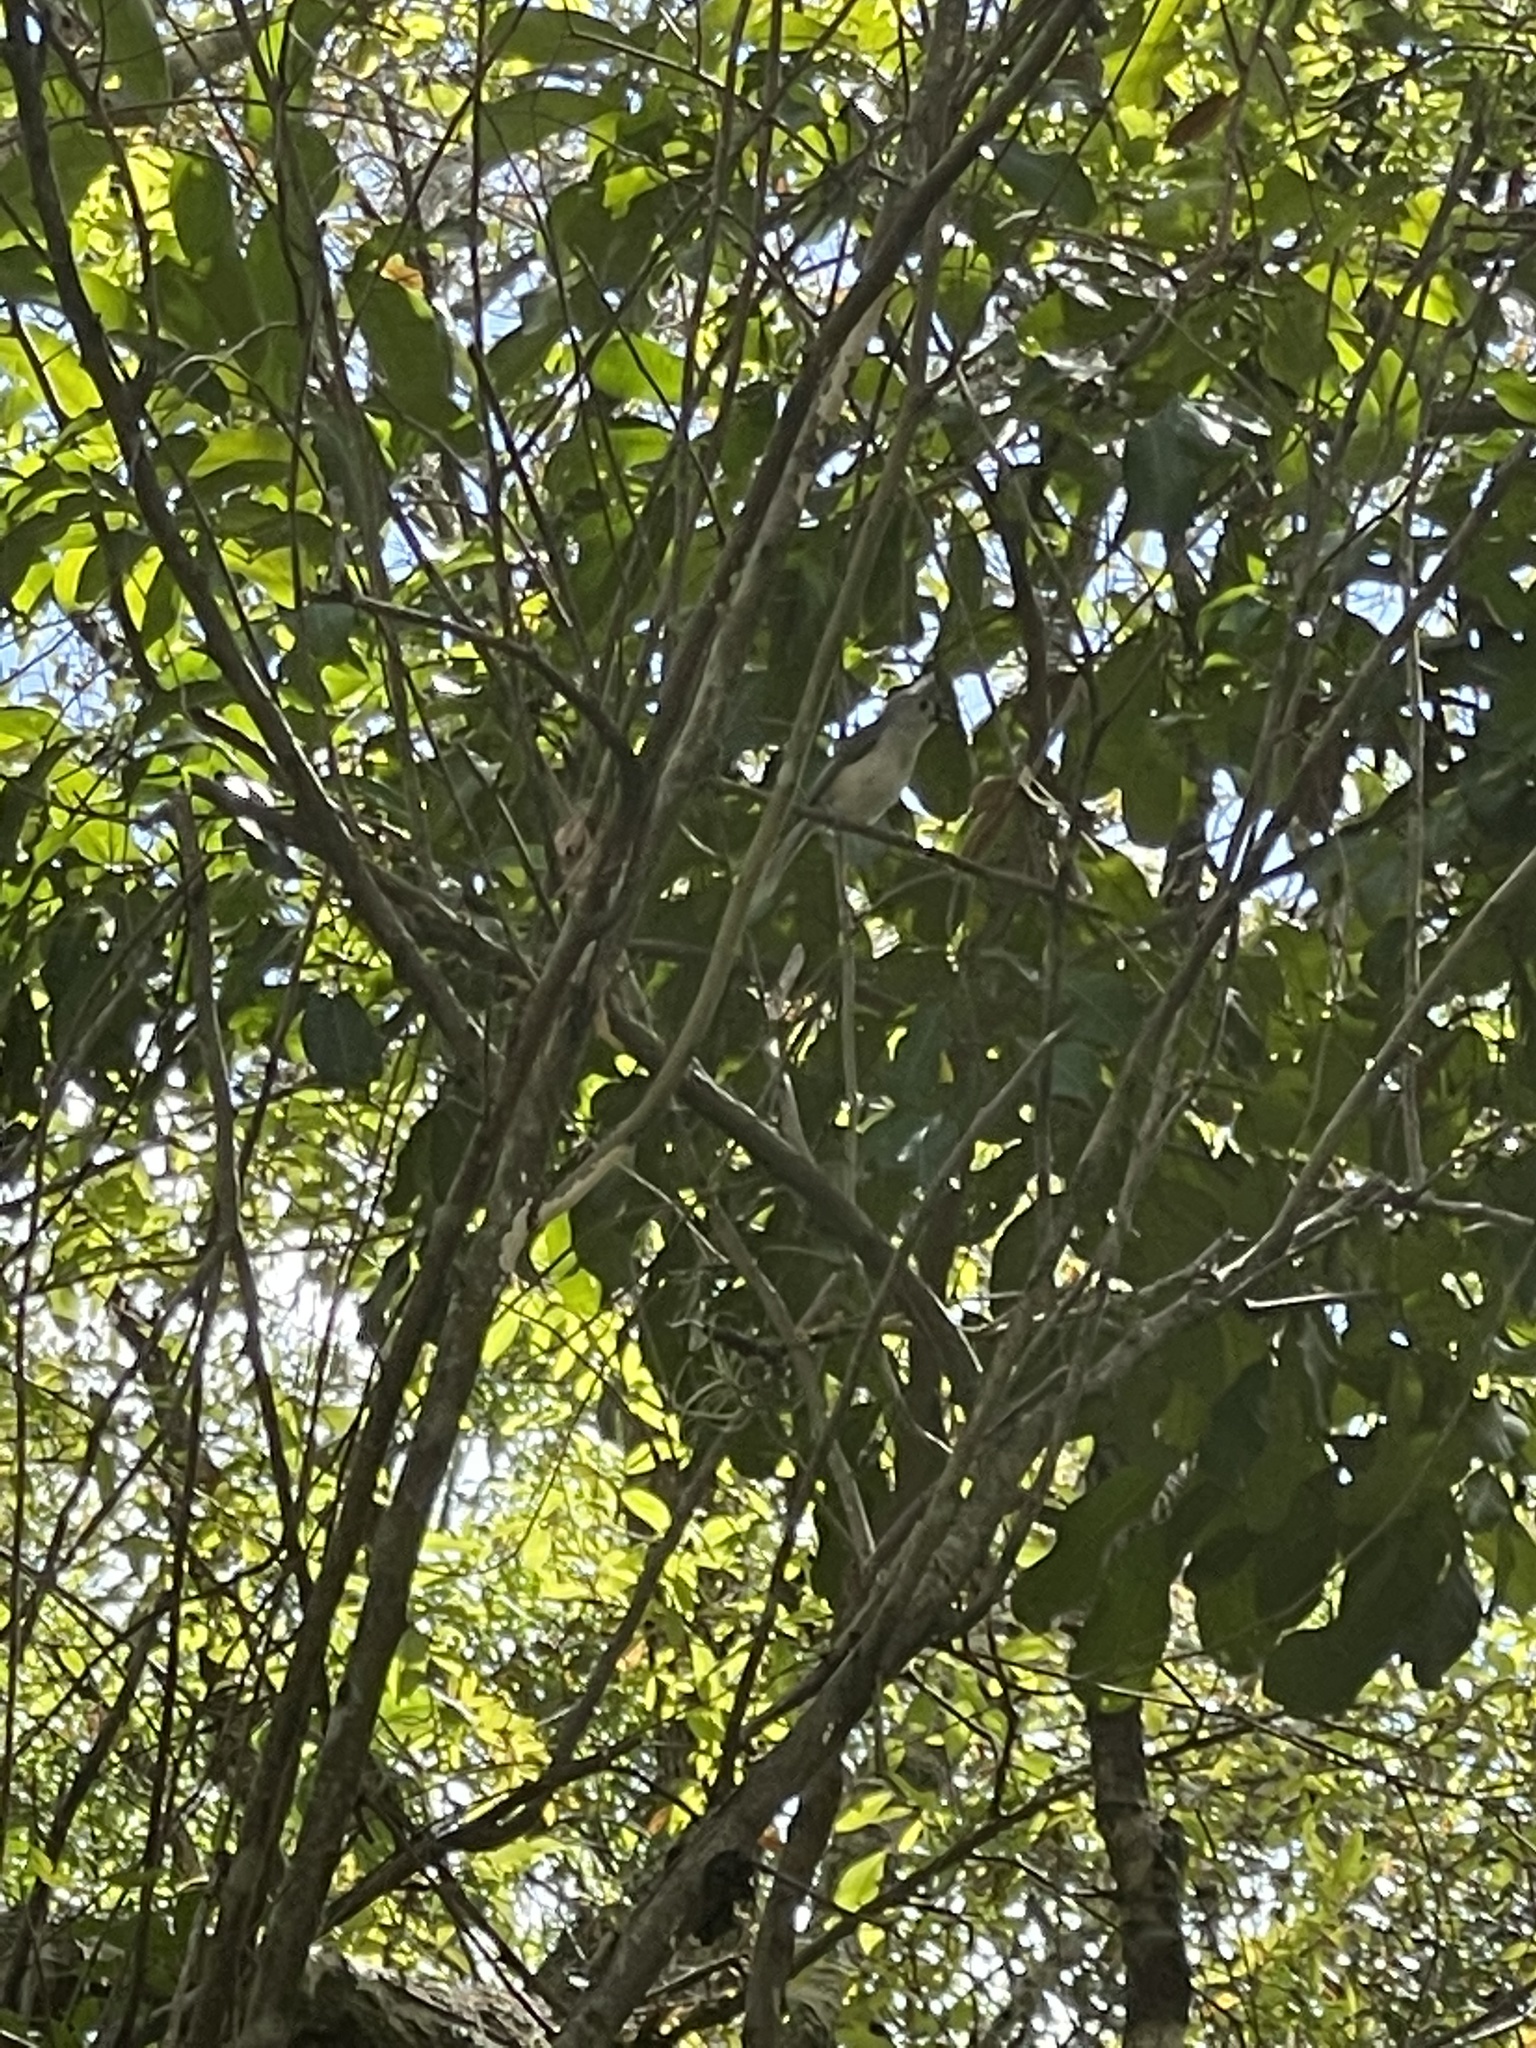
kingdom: Animalia
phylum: Chordata
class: Aves
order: Passeriformes
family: Paridae
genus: Baeolophus
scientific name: Baeolophus bicolor
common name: Tufted titmouse
